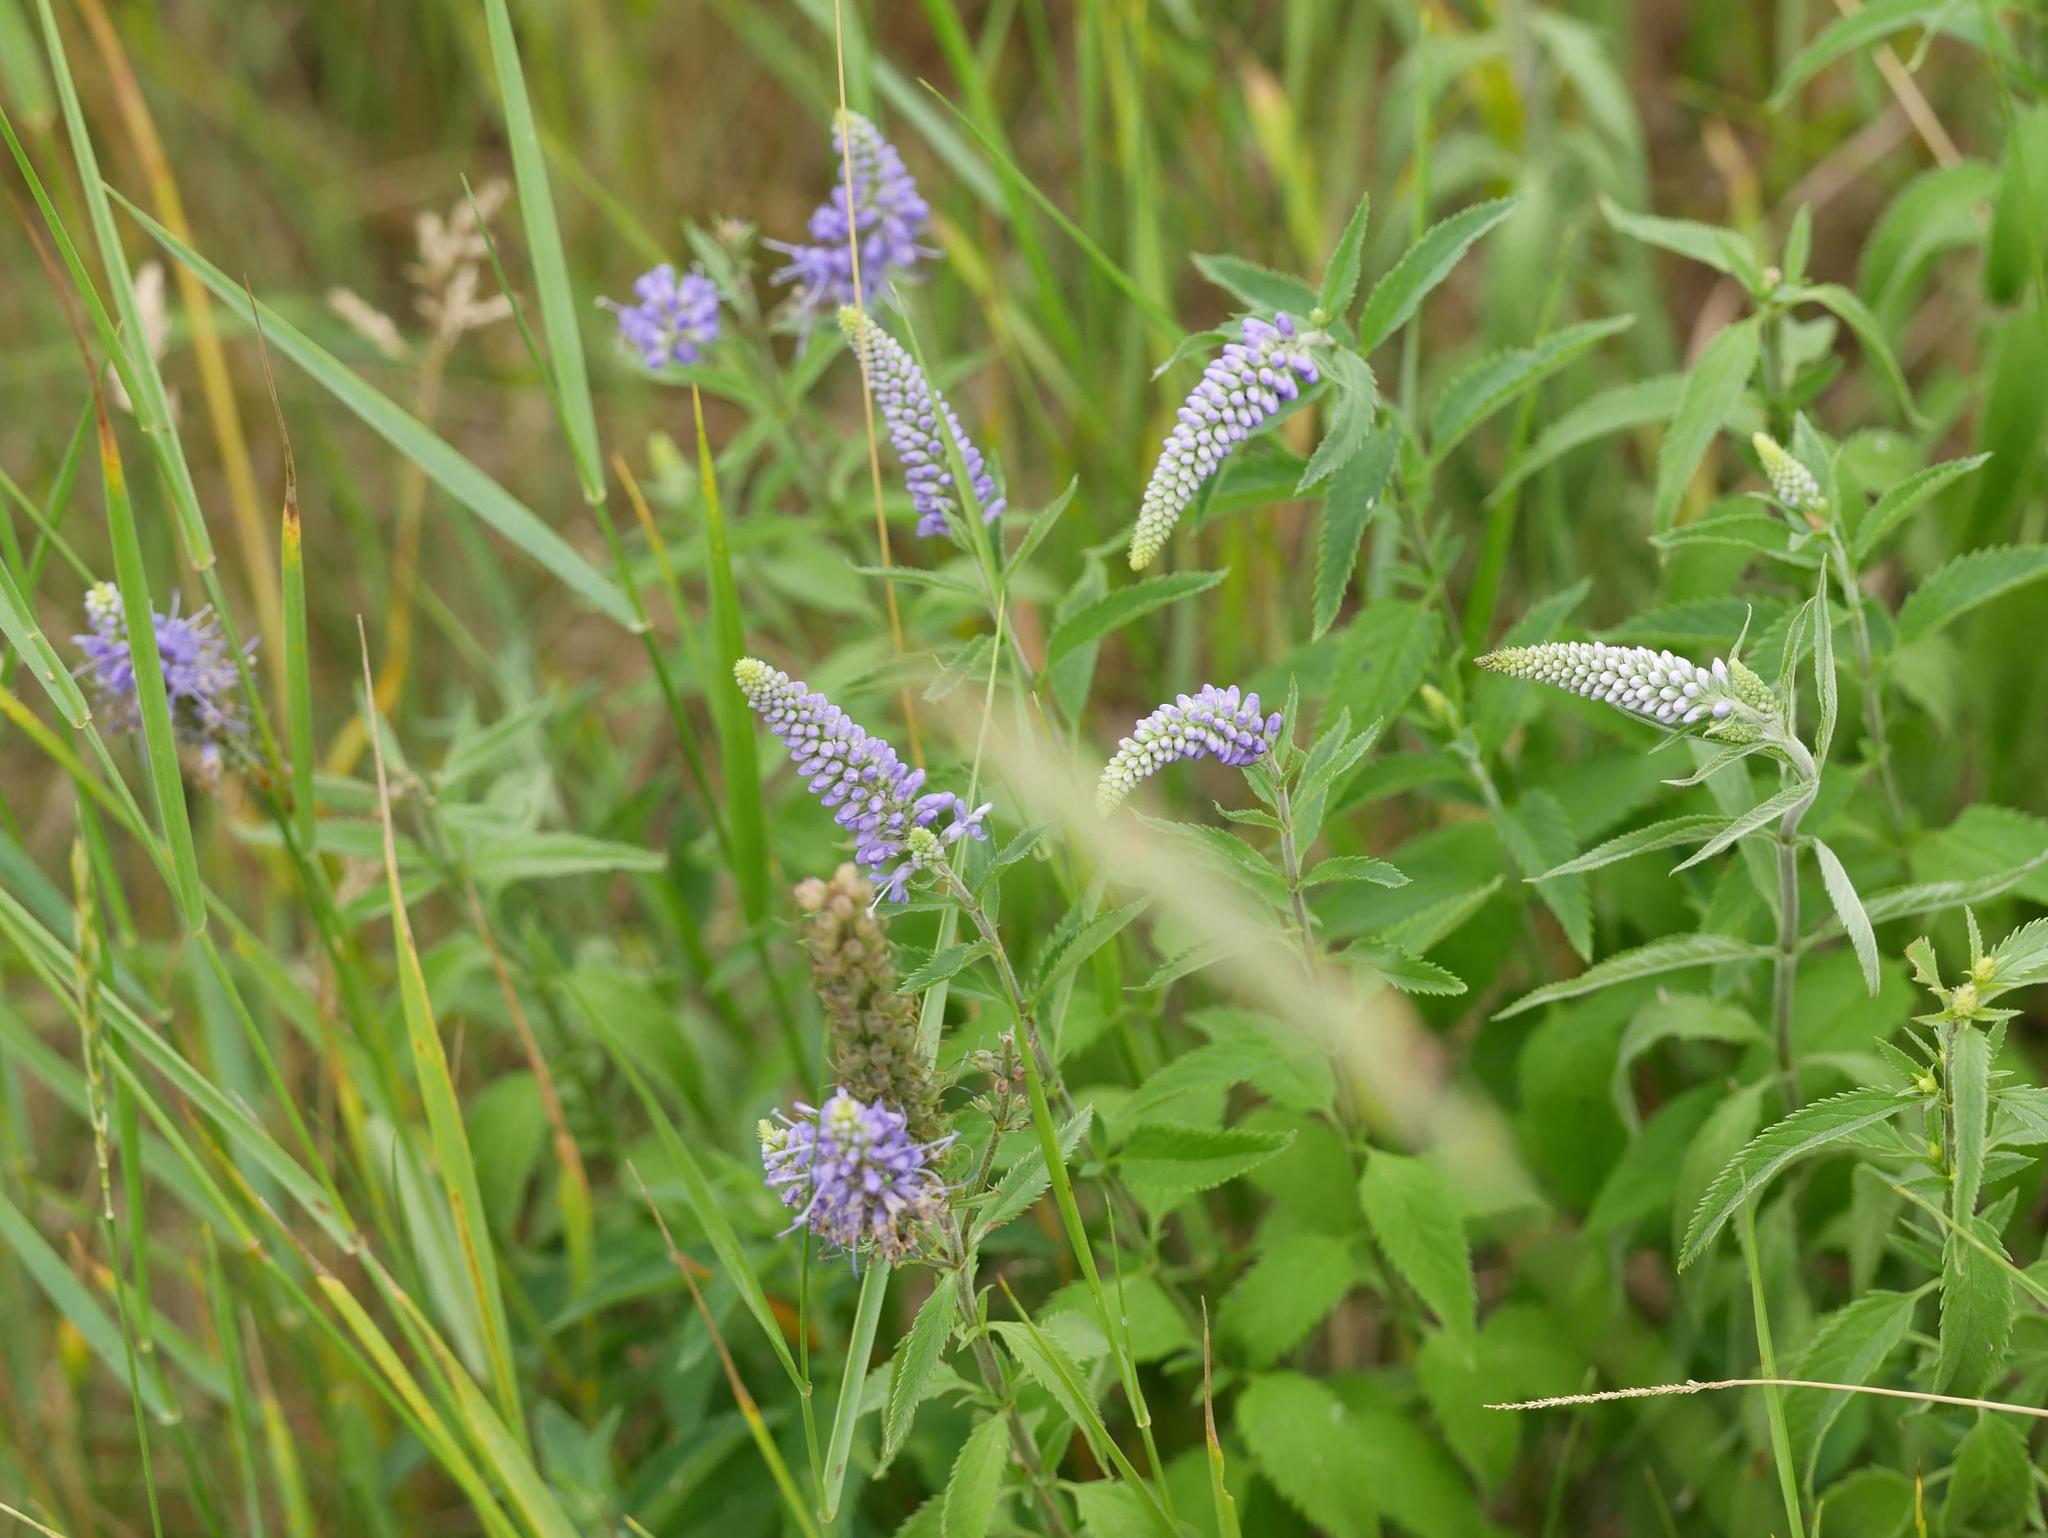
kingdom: Plantae
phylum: Tracheophyta
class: Magnoliopsida
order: Lamiales
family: Plantaginaceae
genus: Veronica
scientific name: Veronica longifolia
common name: Garden speedwell
